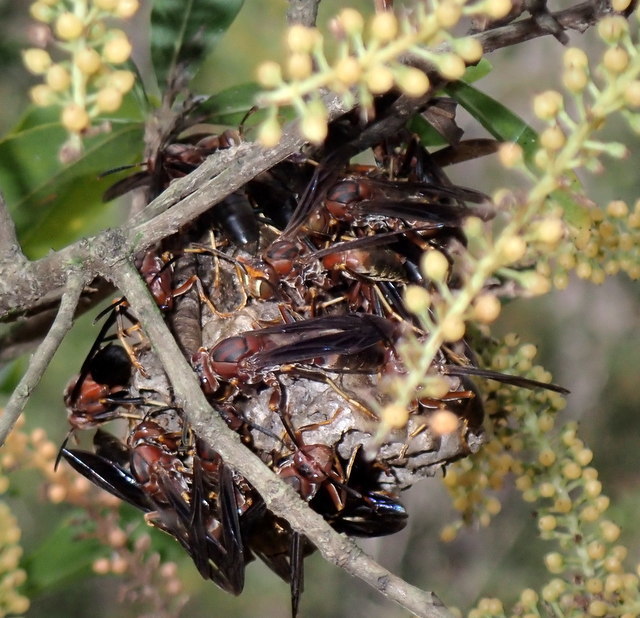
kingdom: Animalia
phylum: Arthropoda
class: Insecta
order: Hymenoptera
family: Eumenidae
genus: Polistes
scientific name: Polistes metricus
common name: Metric paper wasp
